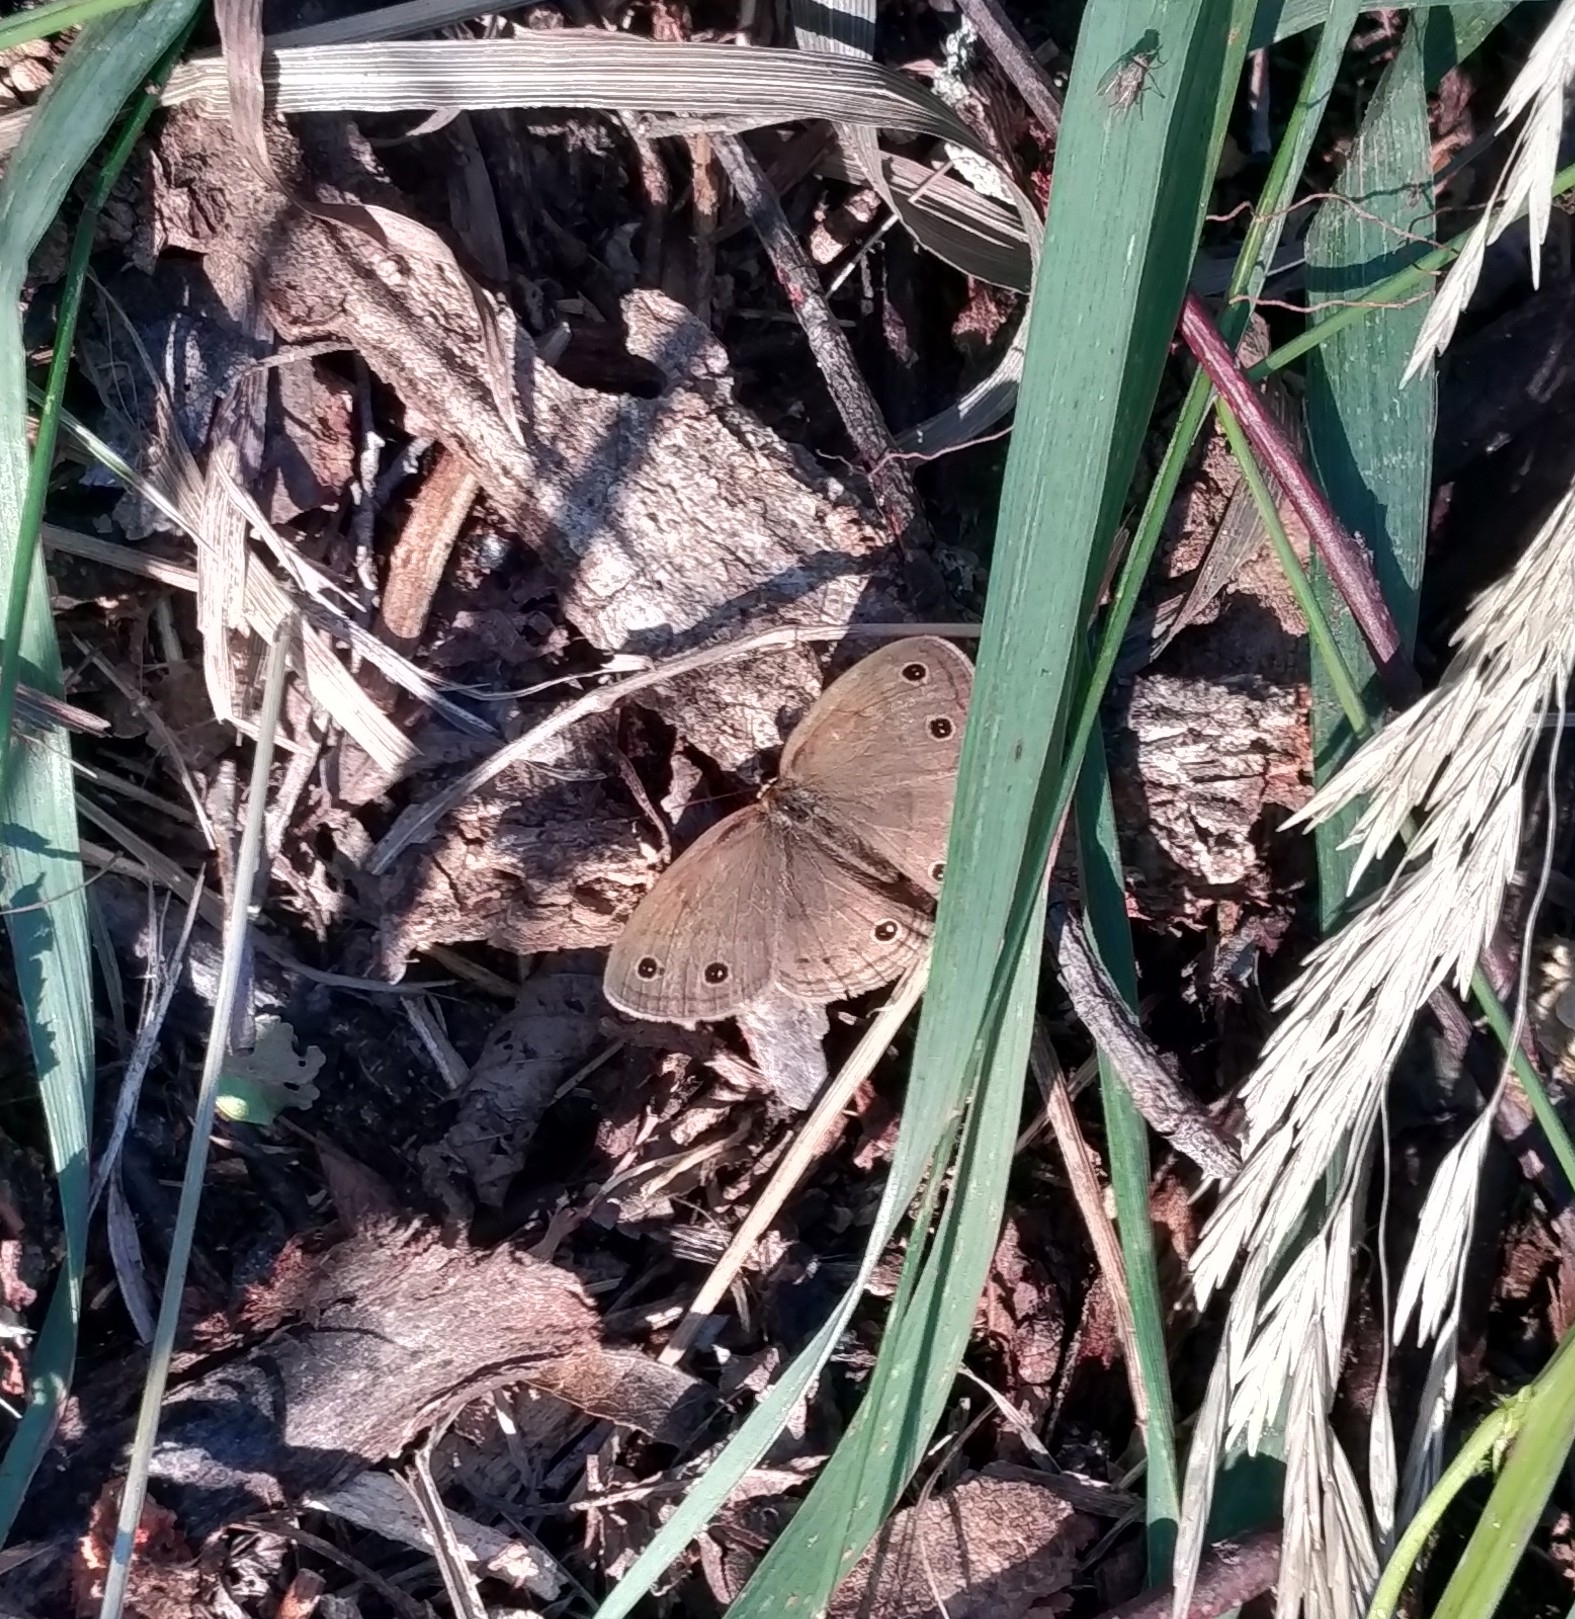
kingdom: Animalia
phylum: Arthropoda
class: Insecta
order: Lepidoptera
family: Nymphalidae
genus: Euptychia
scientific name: Euptychia cymela
